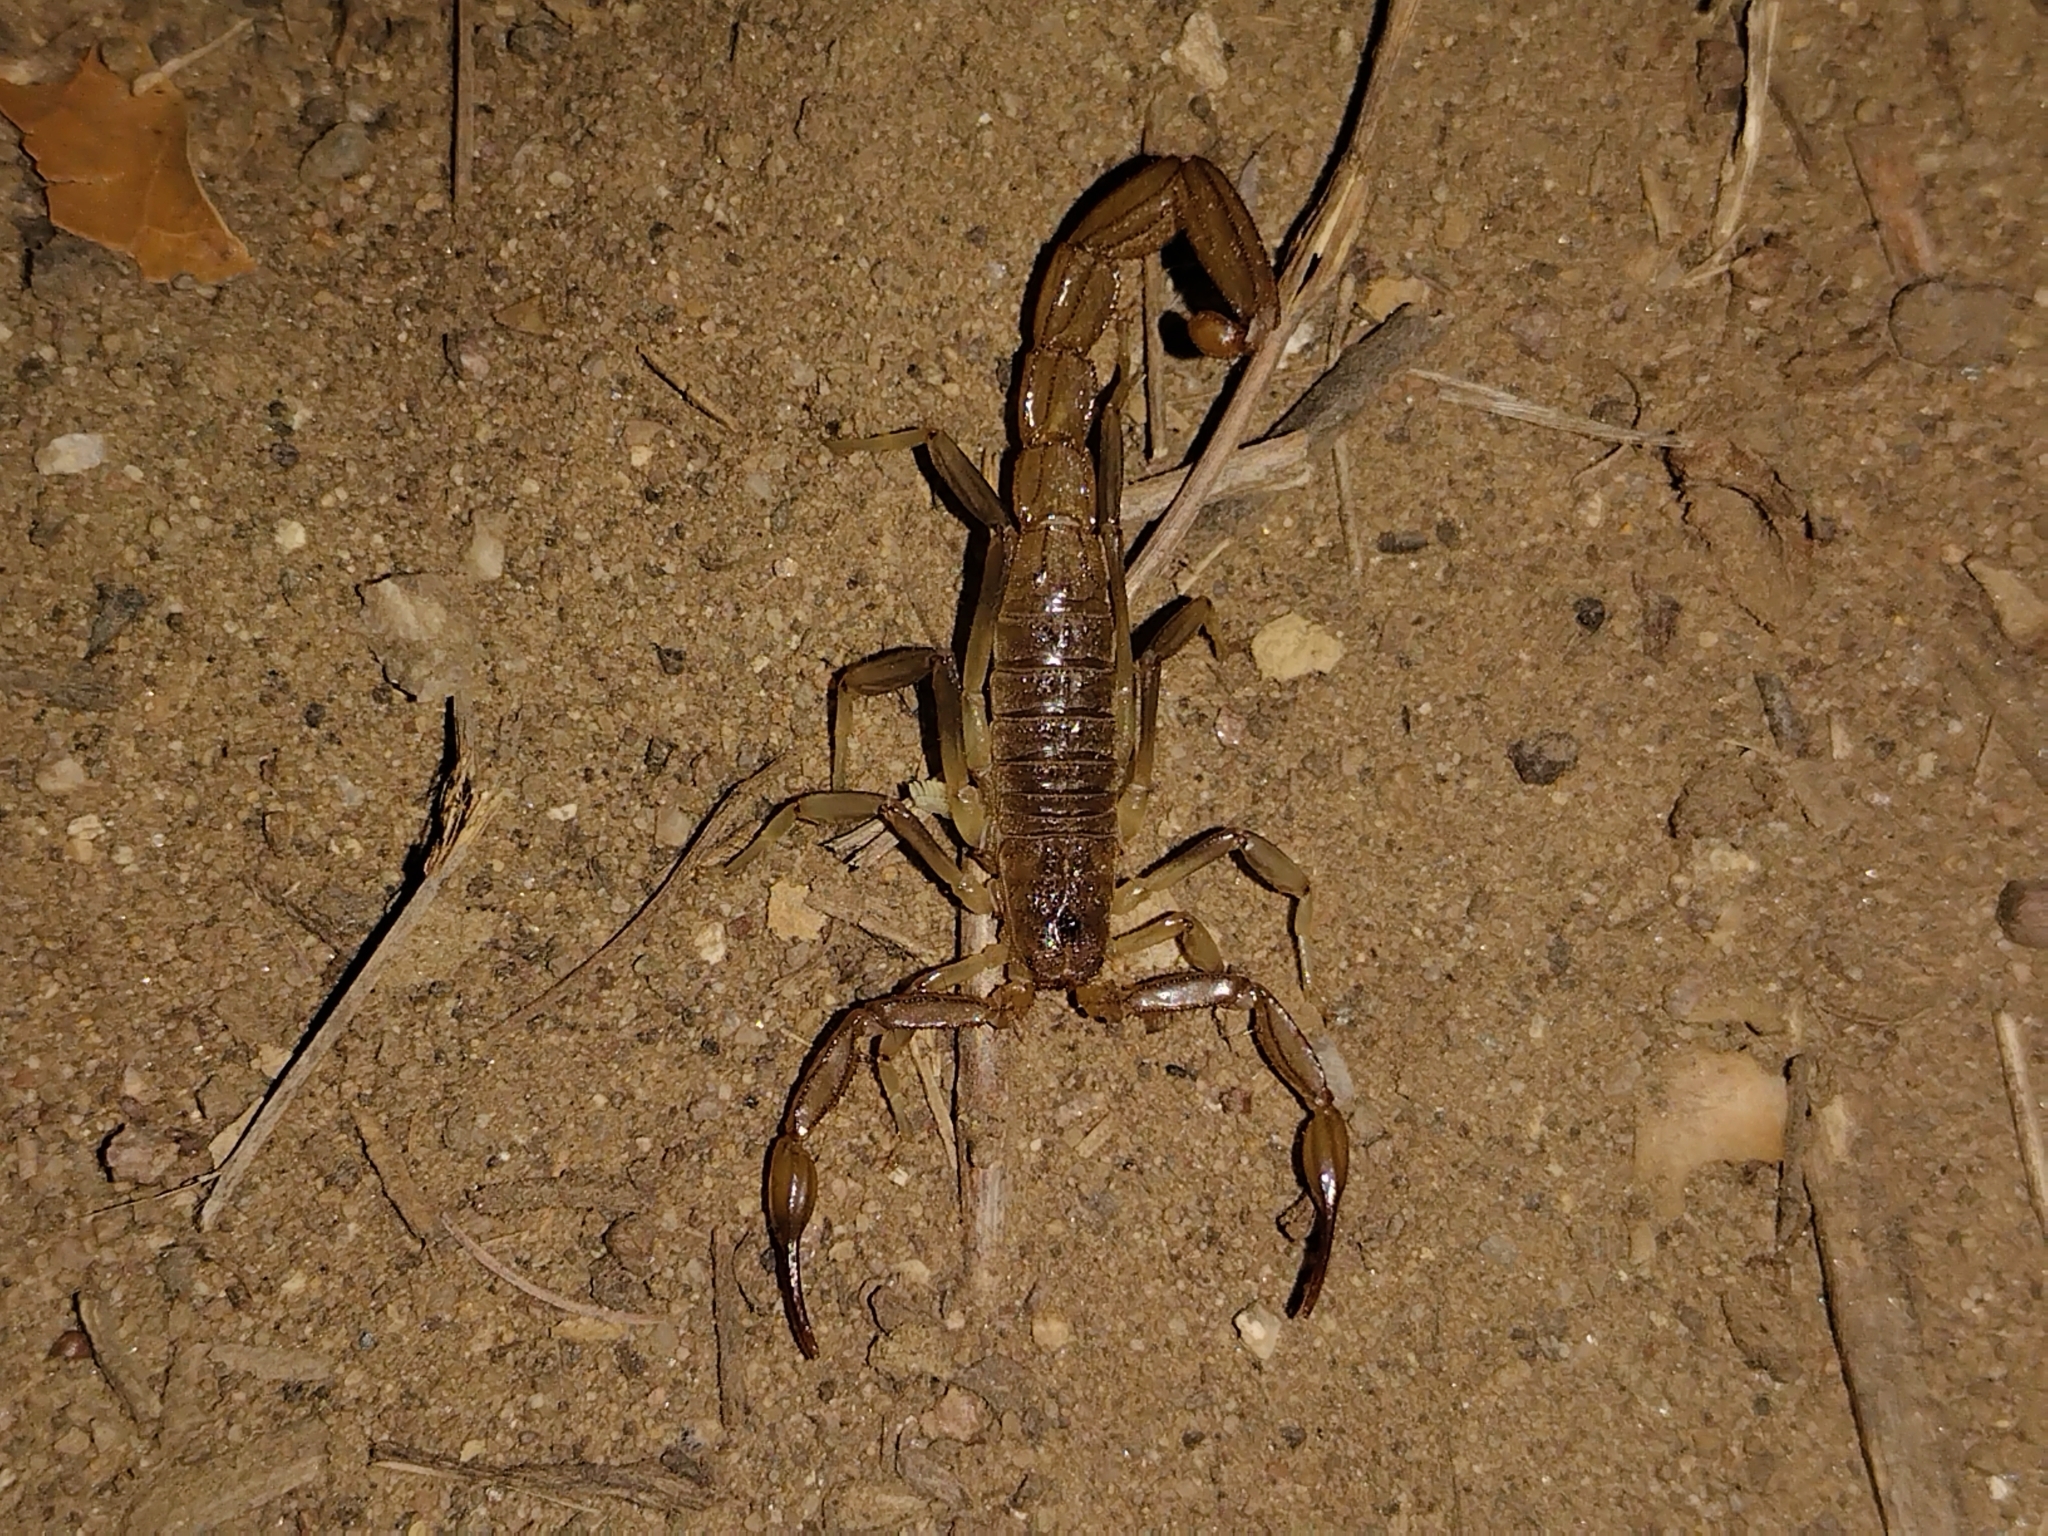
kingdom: Animalia
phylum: Arthropoda
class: Arachnida
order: Scorpiones
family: Vaejovidae
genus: Paravaejovis
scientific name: Paravaejovis puritanus
